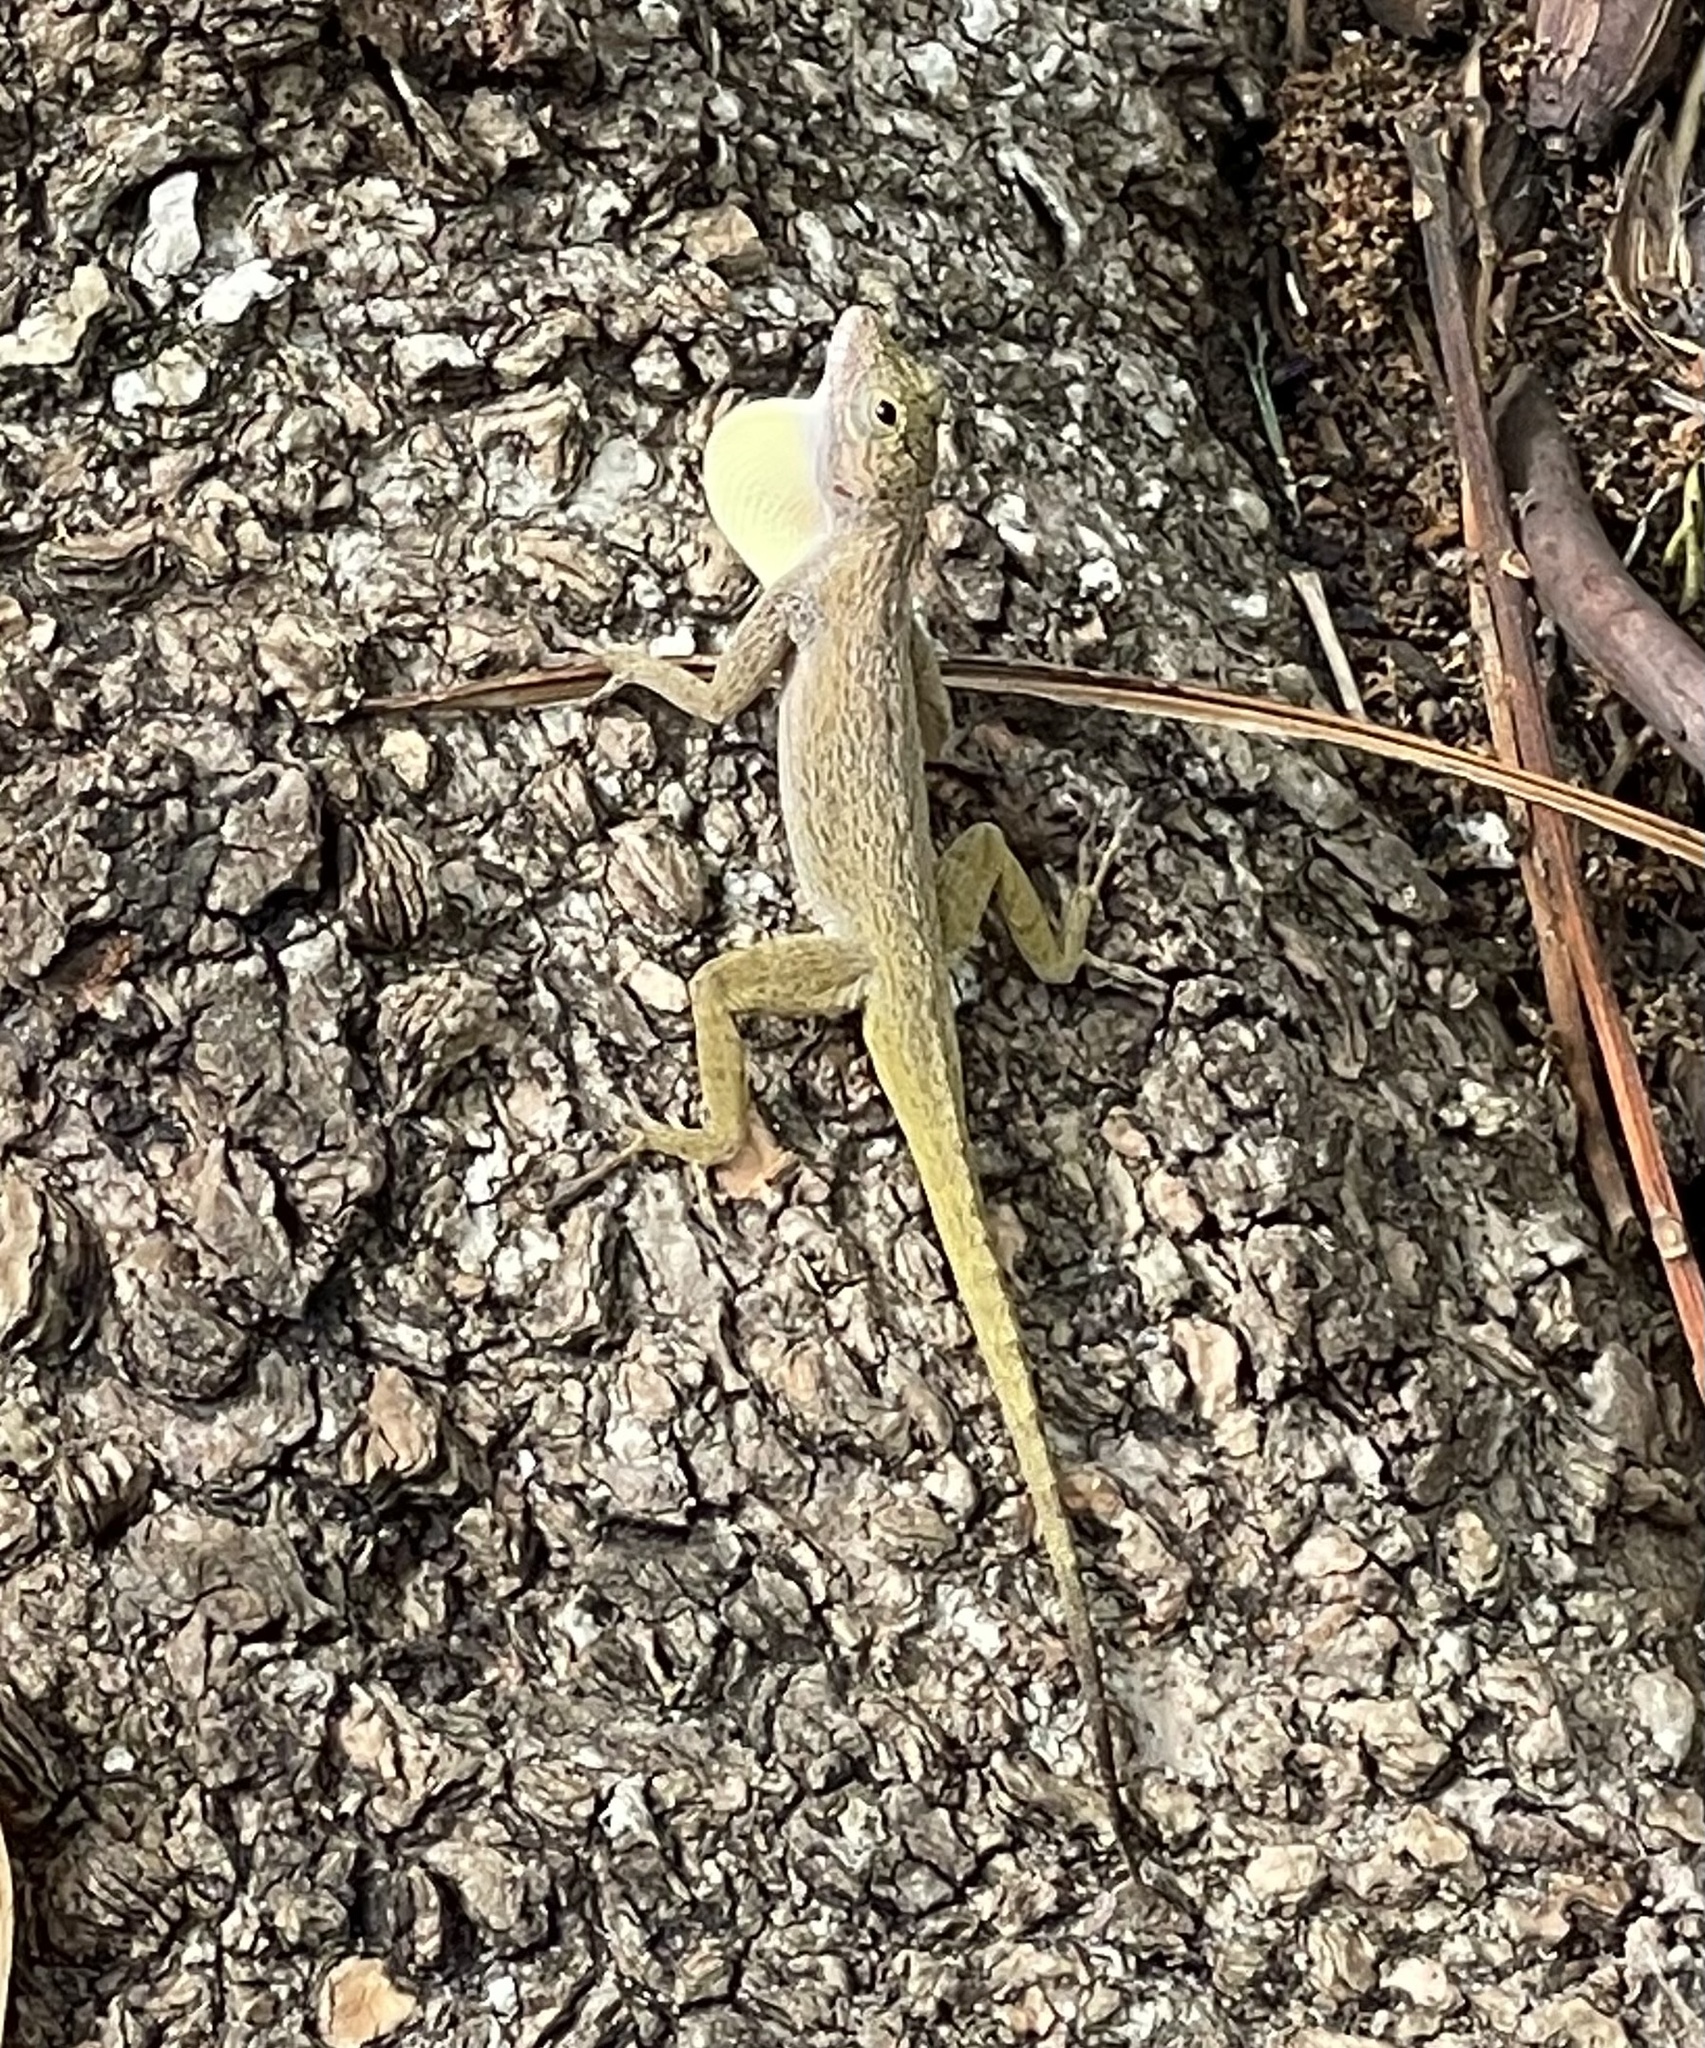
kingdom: Animalia
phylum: Chordata
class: Squamata
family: Dactyloidae
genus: Anolis
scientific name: Anolis distichus
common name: Bark anole
